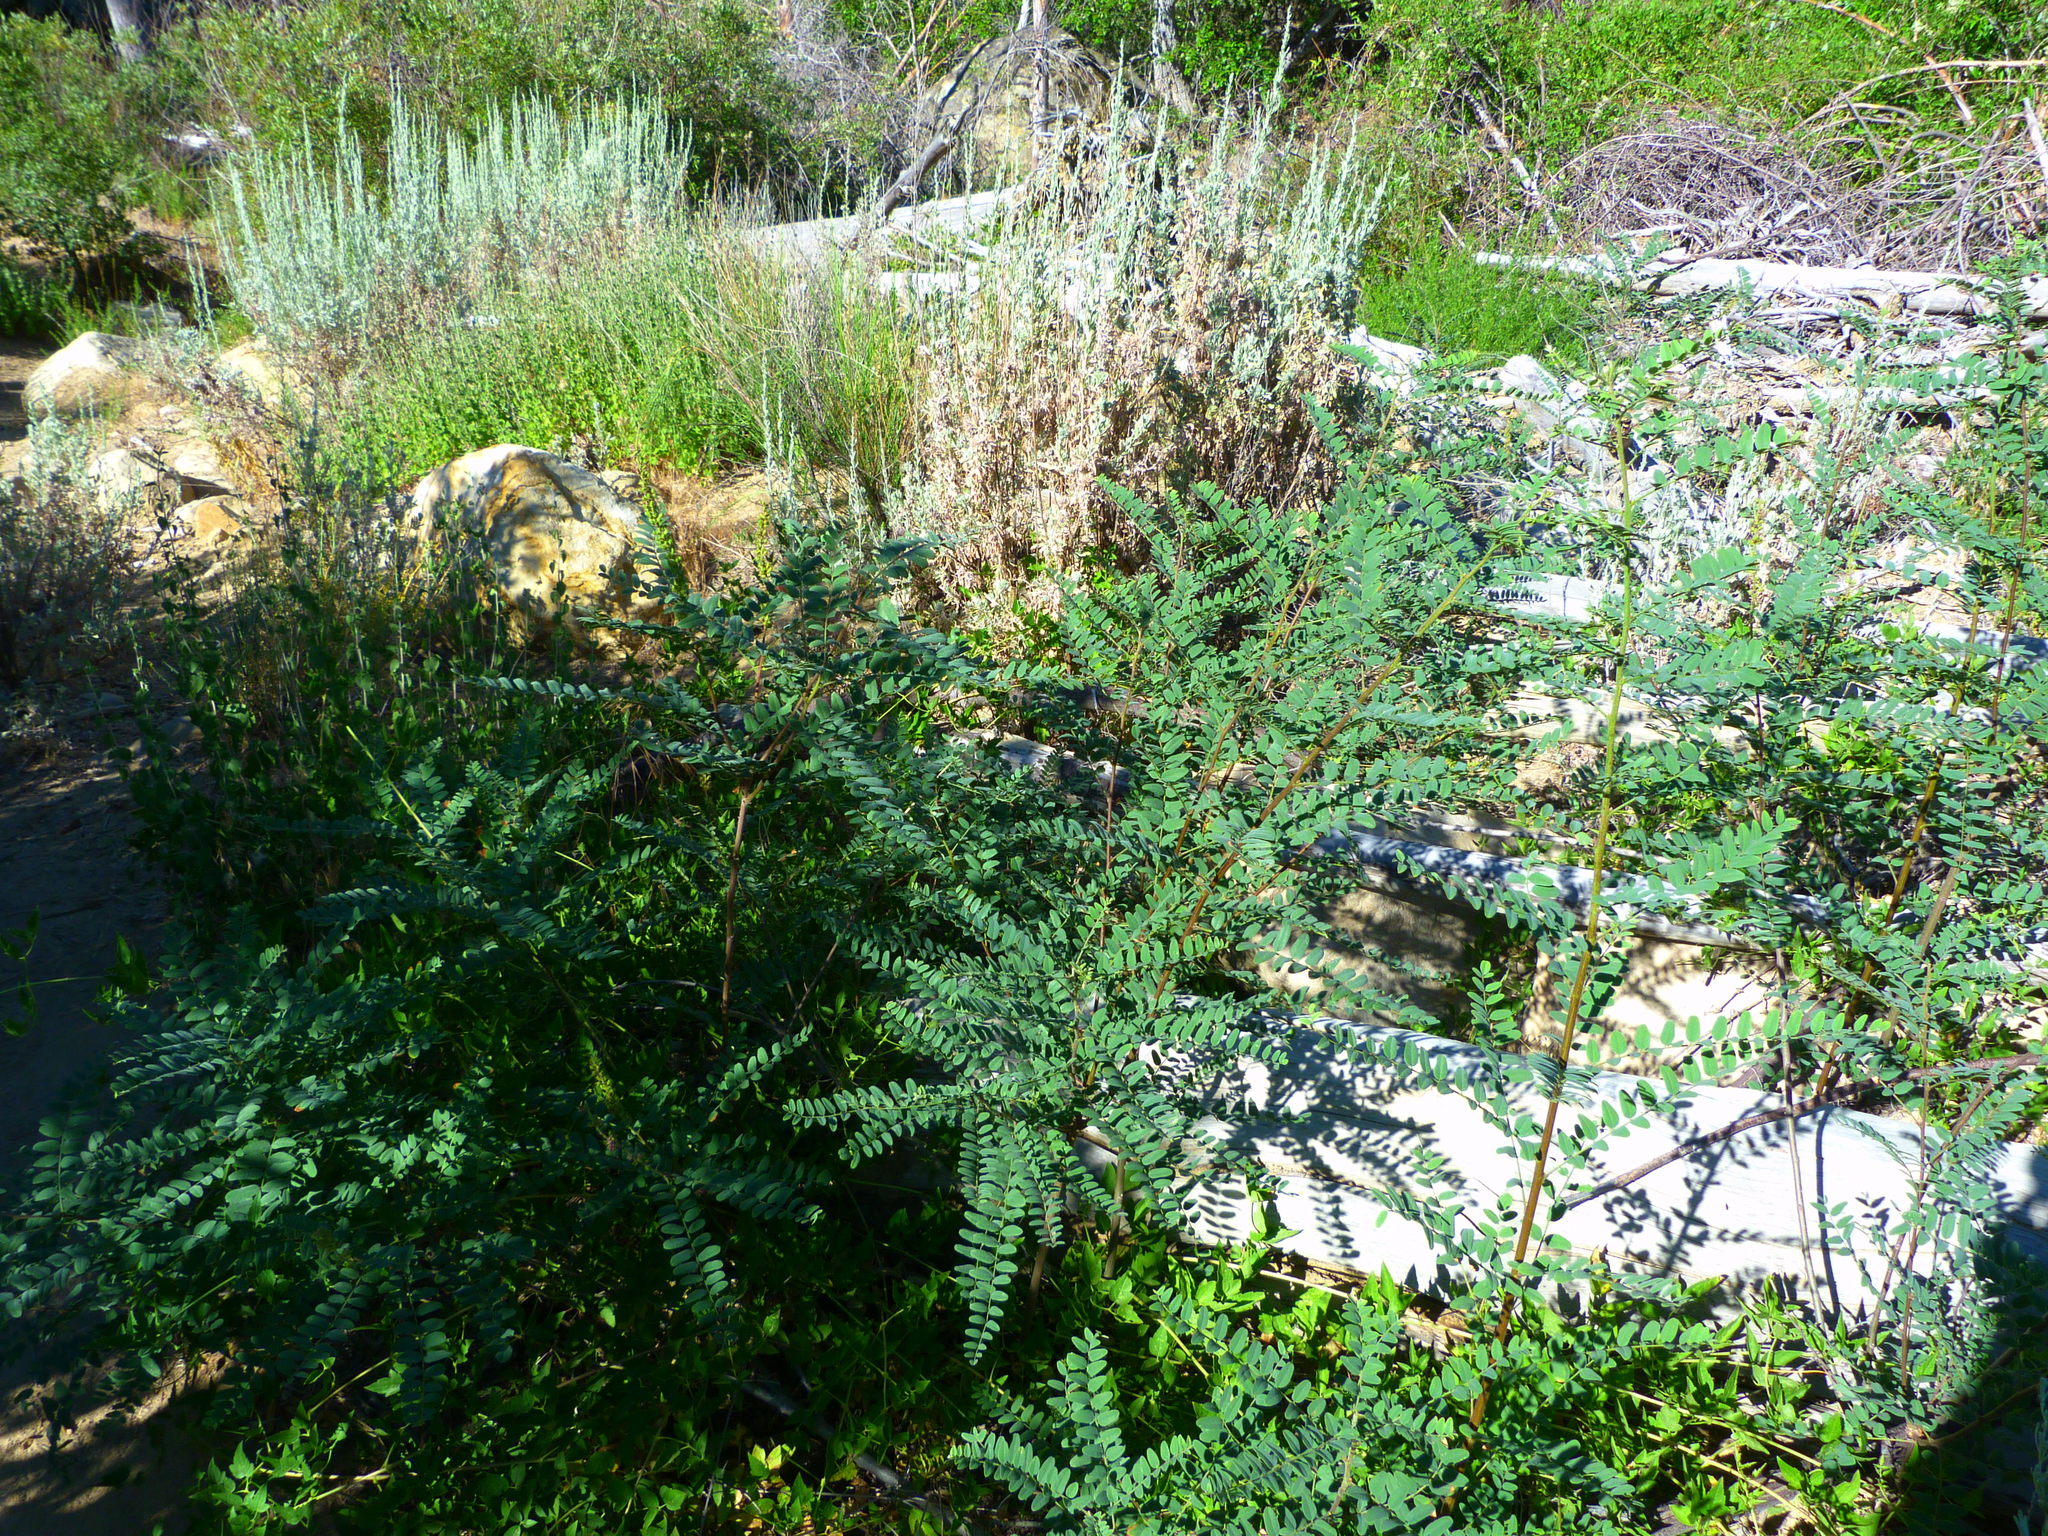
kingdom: Plantae
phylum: Tracheophyta
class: Magnoliopsida
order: Fabales
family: Fabaceae
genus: Amorpha
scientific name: Amorpha californica
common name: California indigobush
